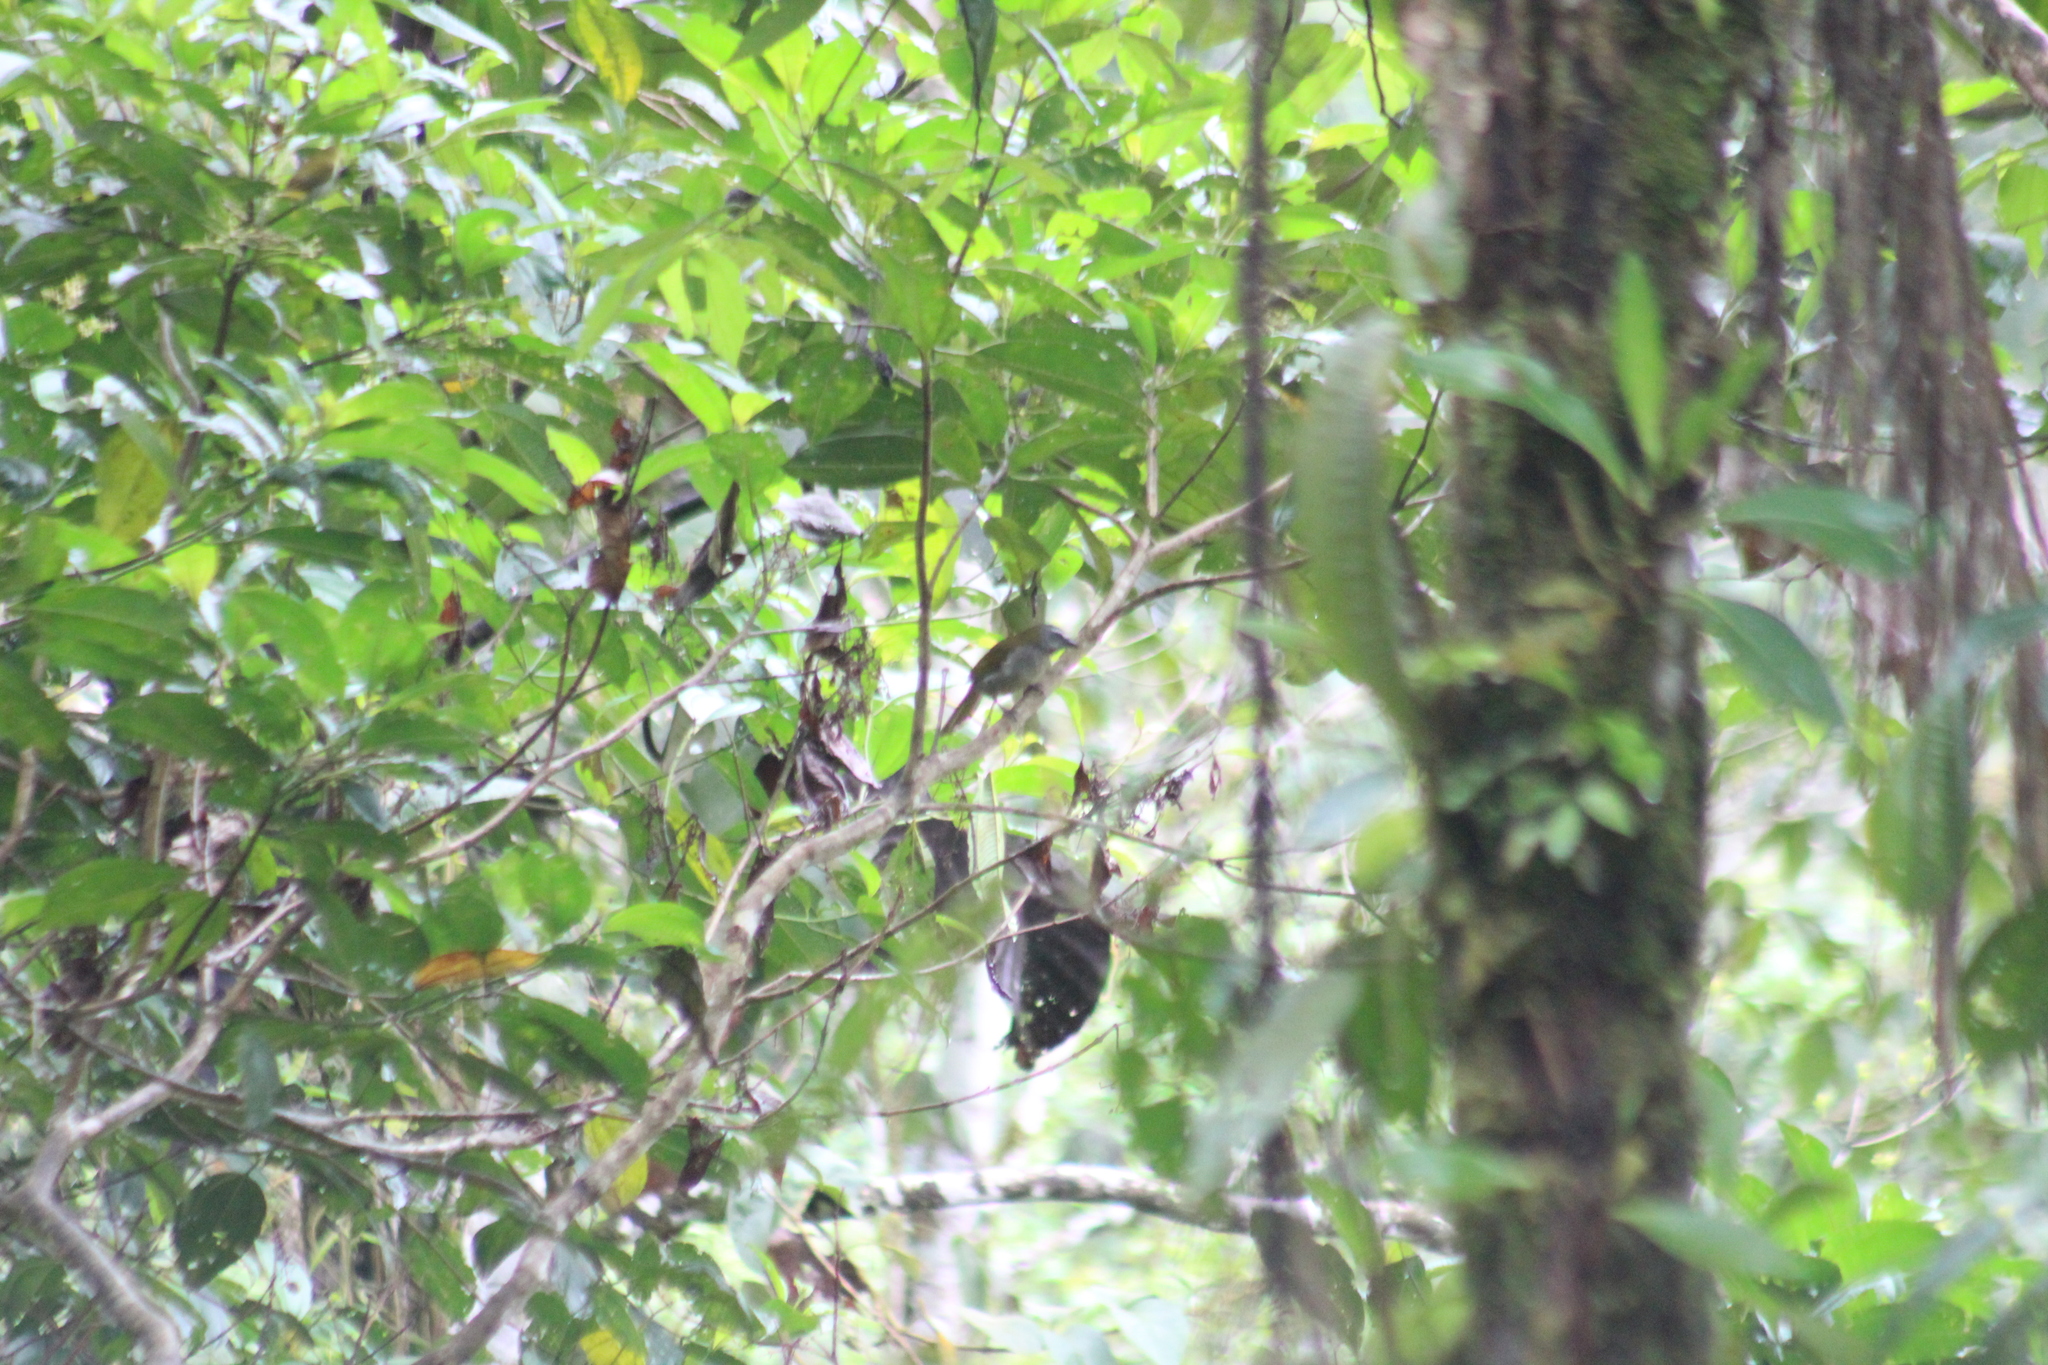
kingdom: Animalia
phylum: Chordata
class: Aves
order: Passeriformes
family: Thraupidae
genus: Saltator
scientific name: Saltator maximus
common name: Buff-throated saltator
